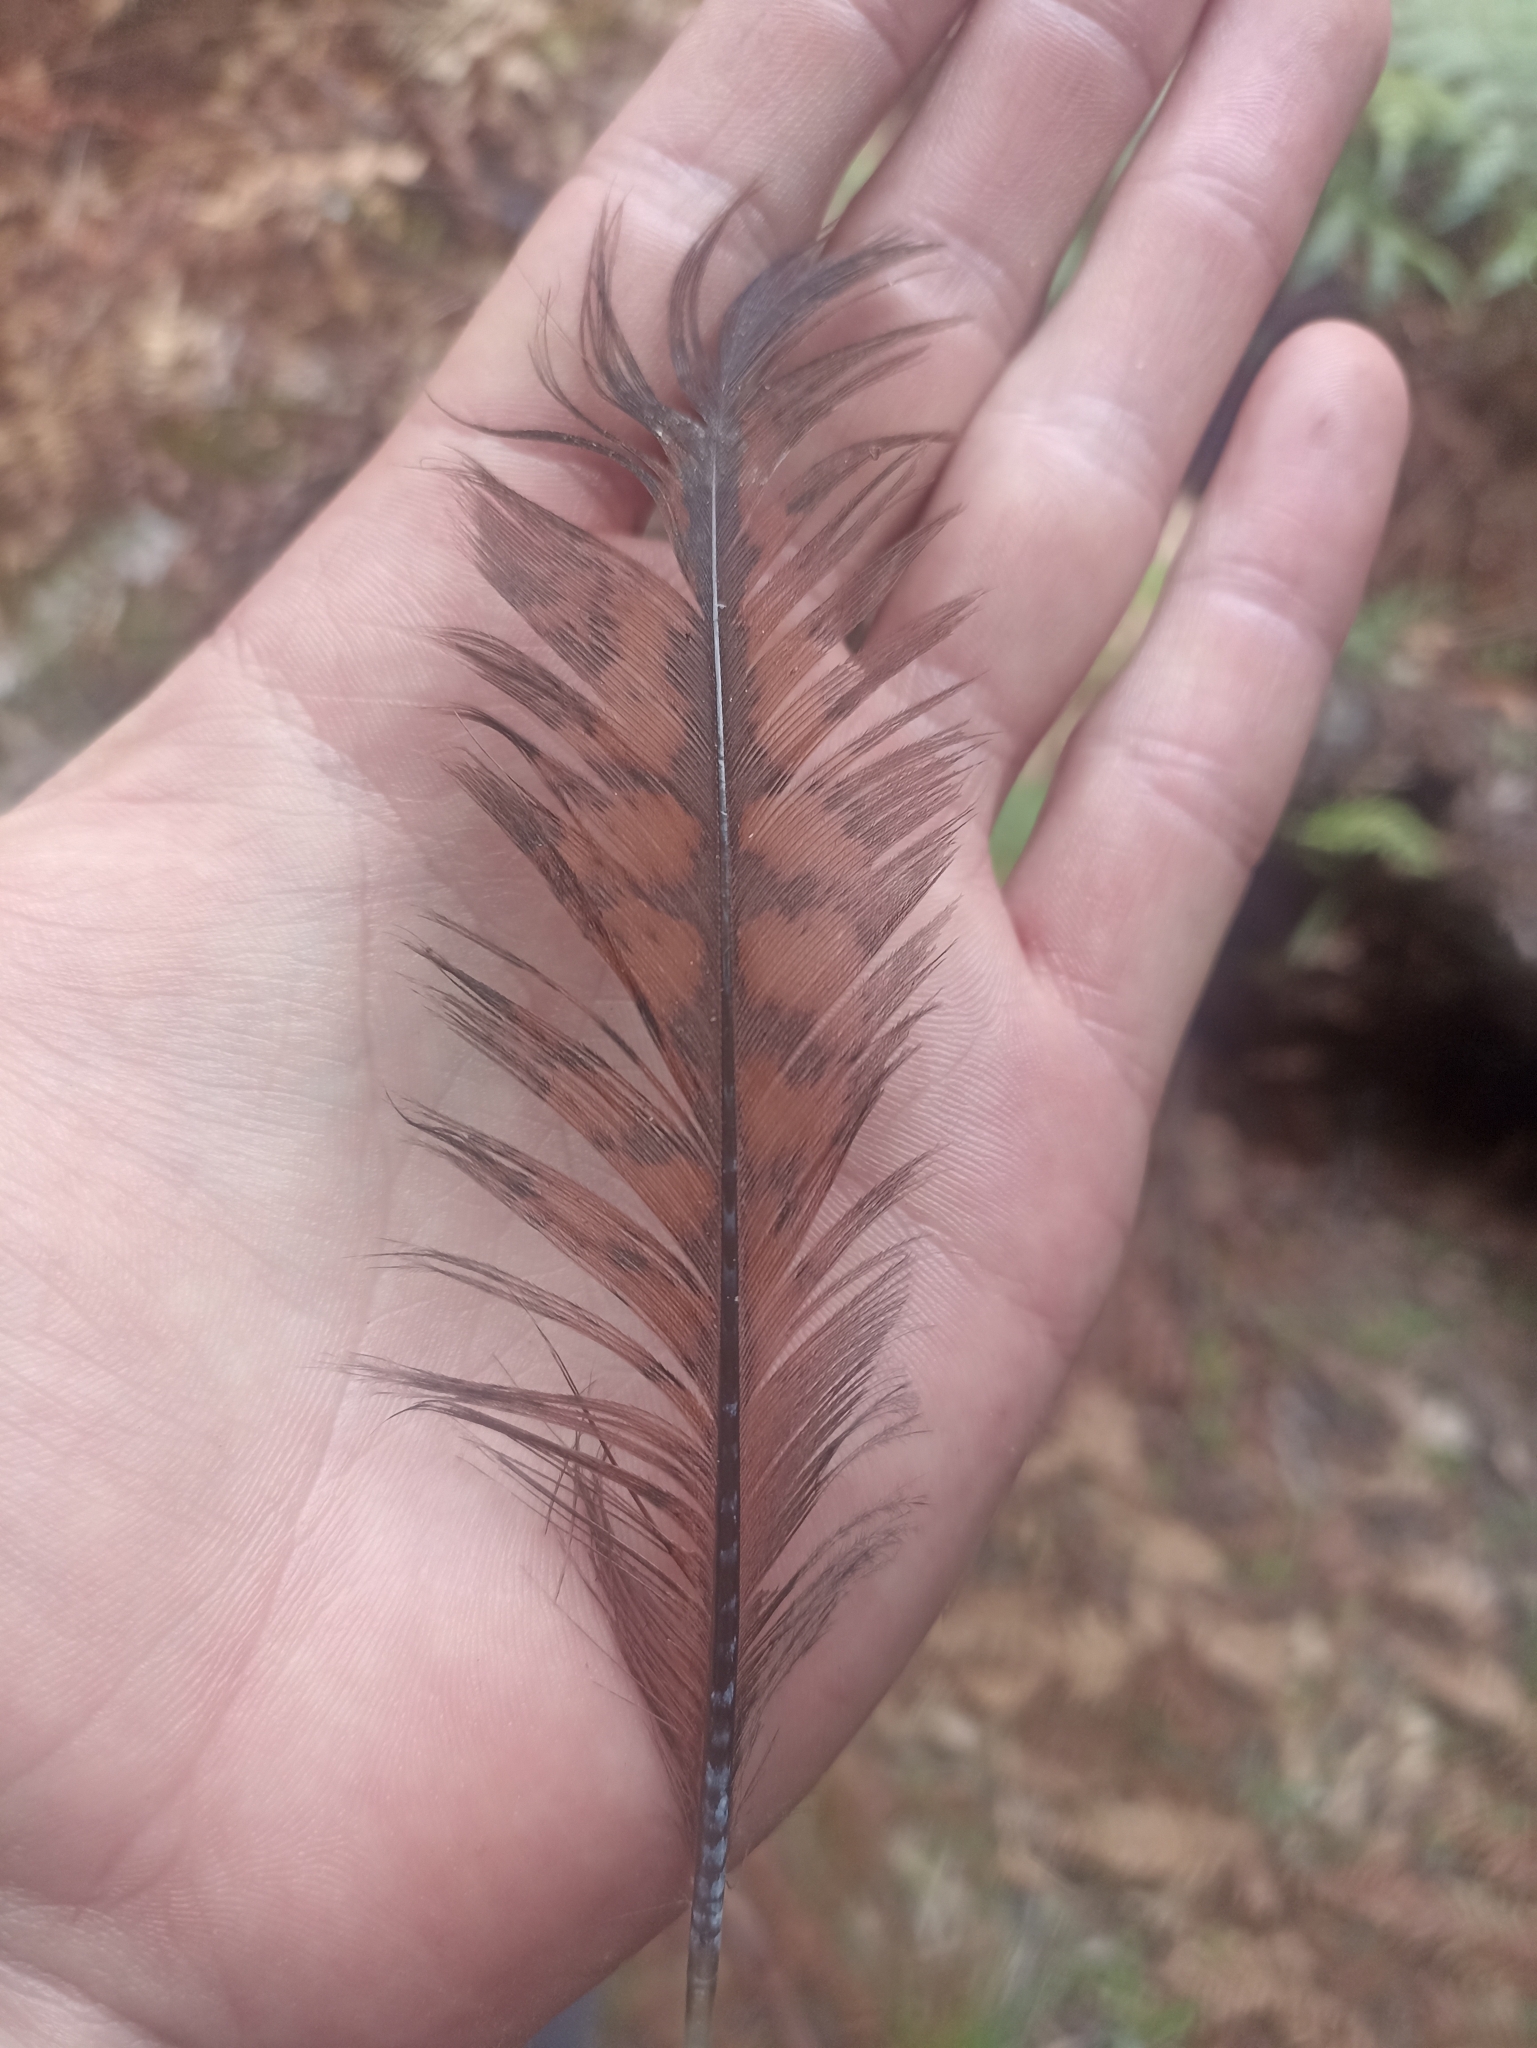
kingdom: Animalia
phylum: Chordata
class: Aves
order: Gruiformes
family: Rallidae
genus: Gallirallus
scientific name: Gallirallus australis
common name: Weka
